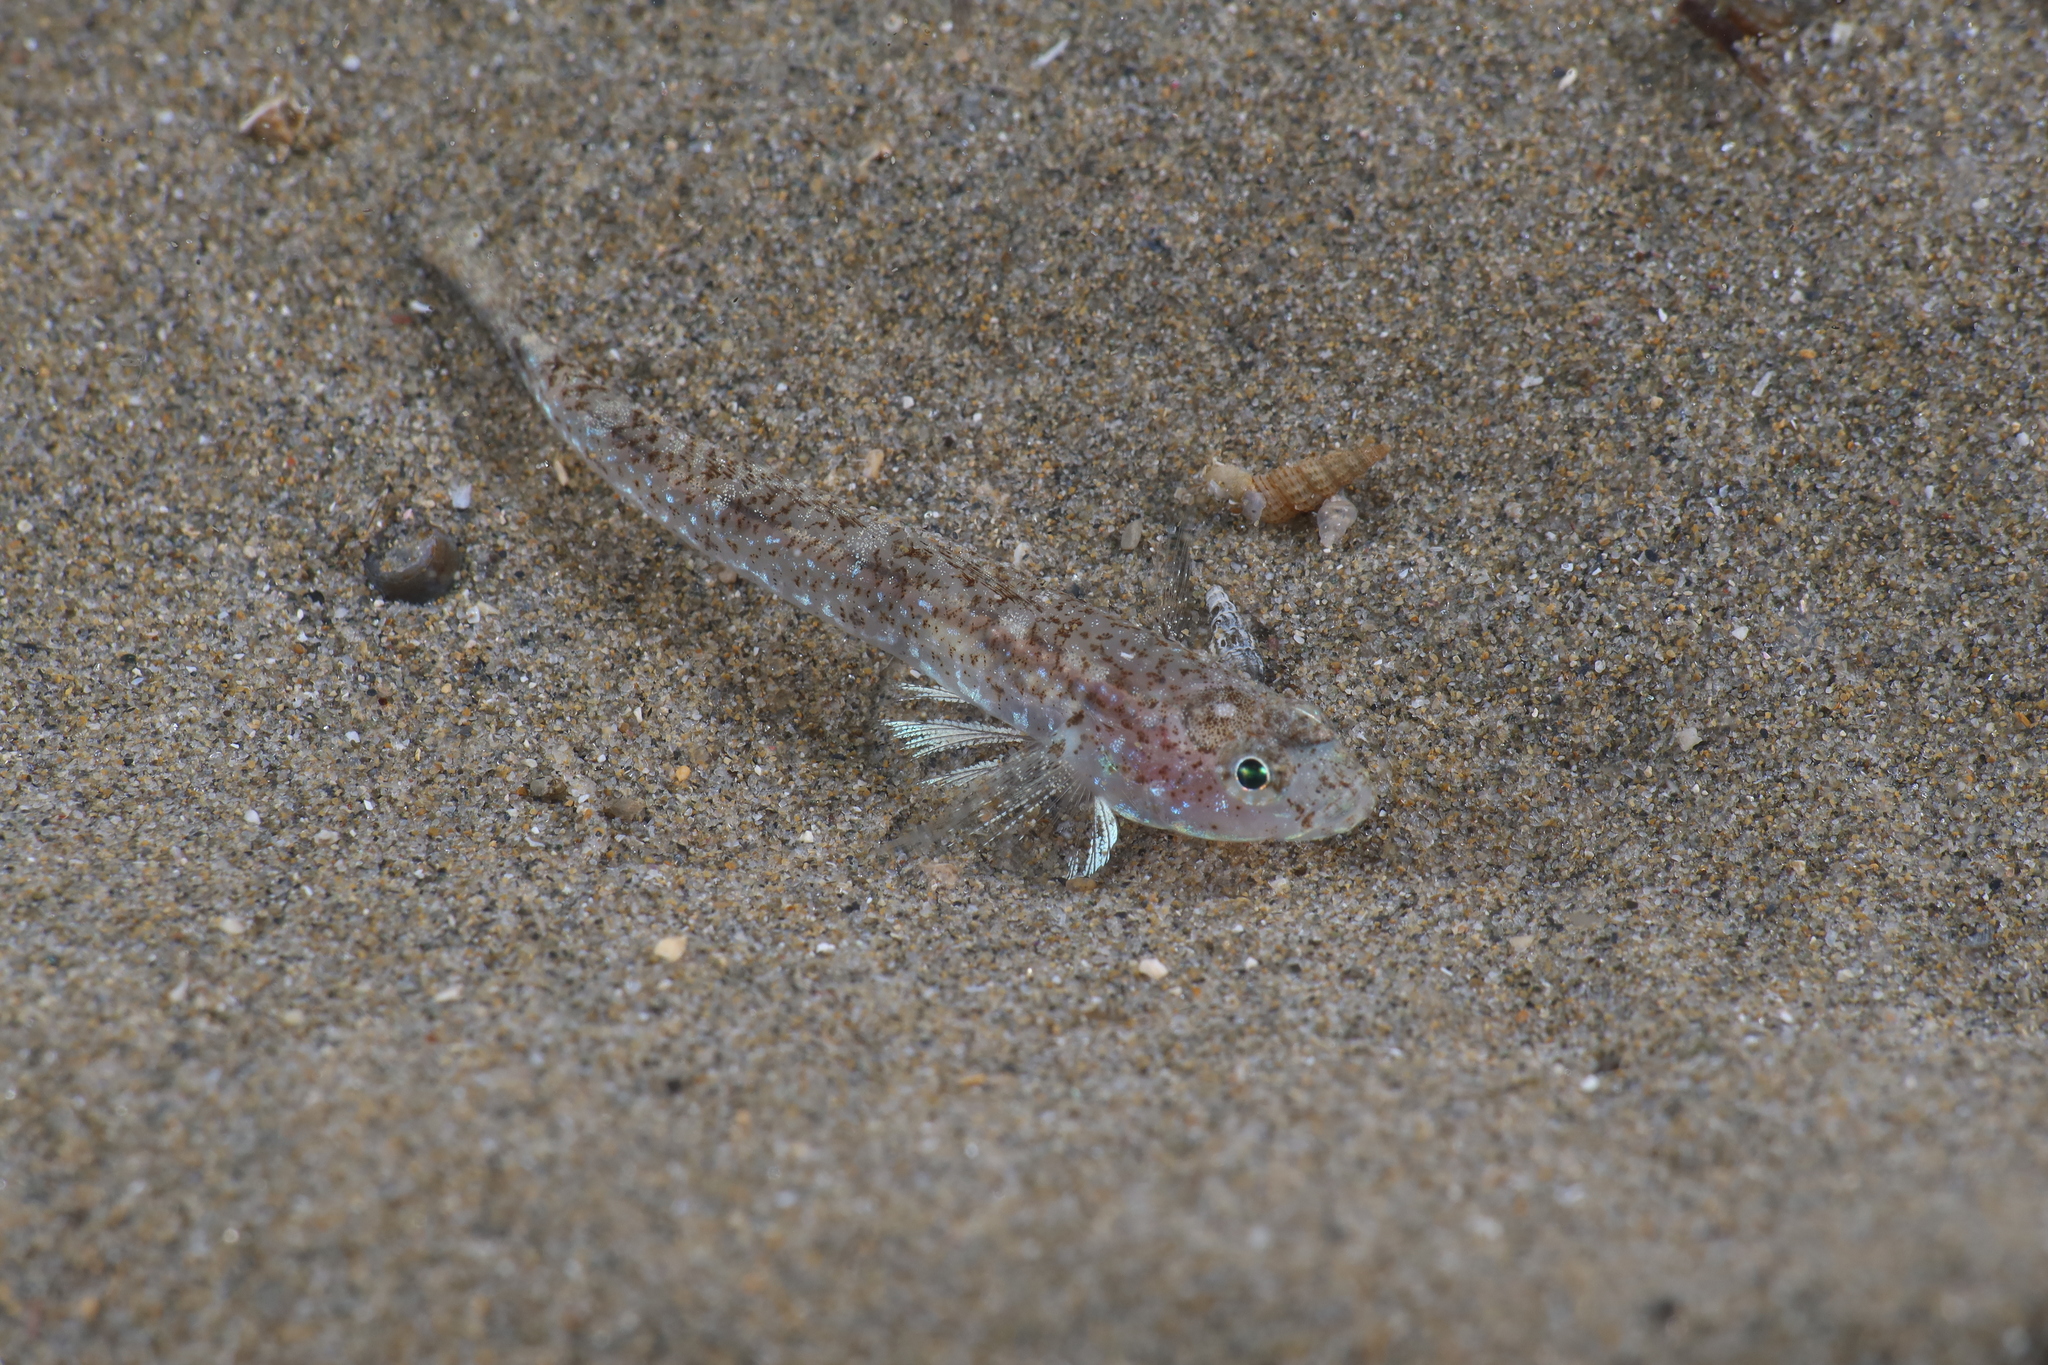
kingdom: Animalia
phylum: Chordata
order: Perciformes
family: Gobiidae
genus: Pomatoschistus
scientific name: Pomatoschistus marmoratus
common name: Marbled goby
